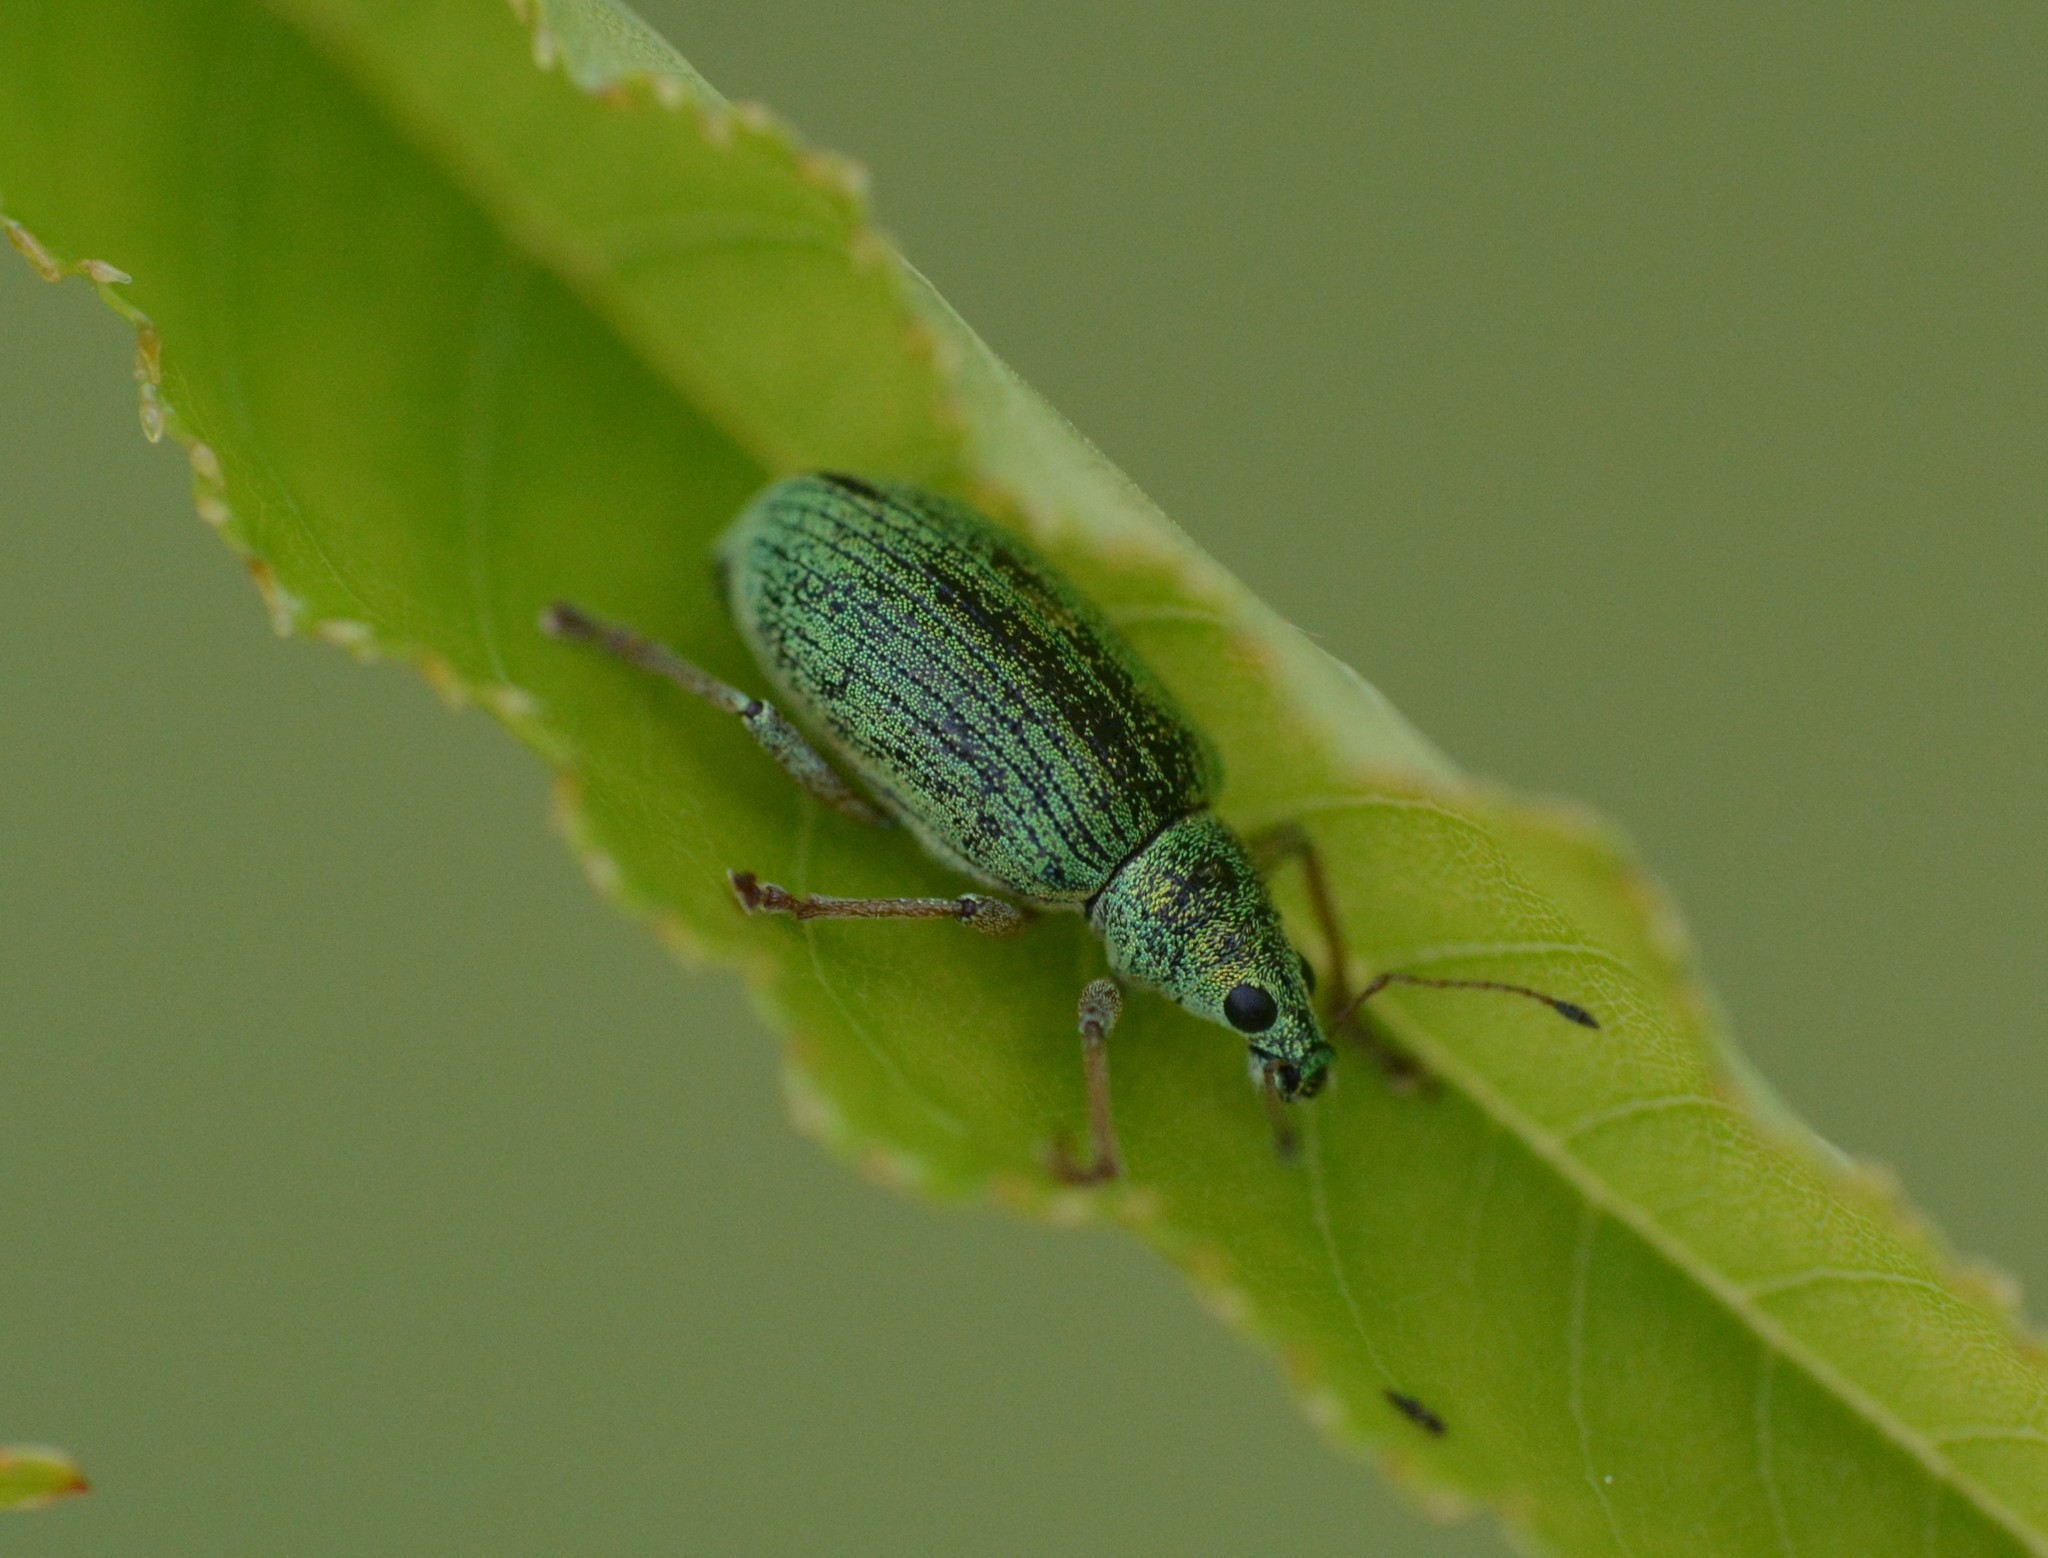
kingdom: Animalia
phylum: Arthropoda
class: Insecta
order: Coleoptera
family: Curculionidae
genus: Polydrusus
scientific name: Polydrusus formosus
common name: Weevil
